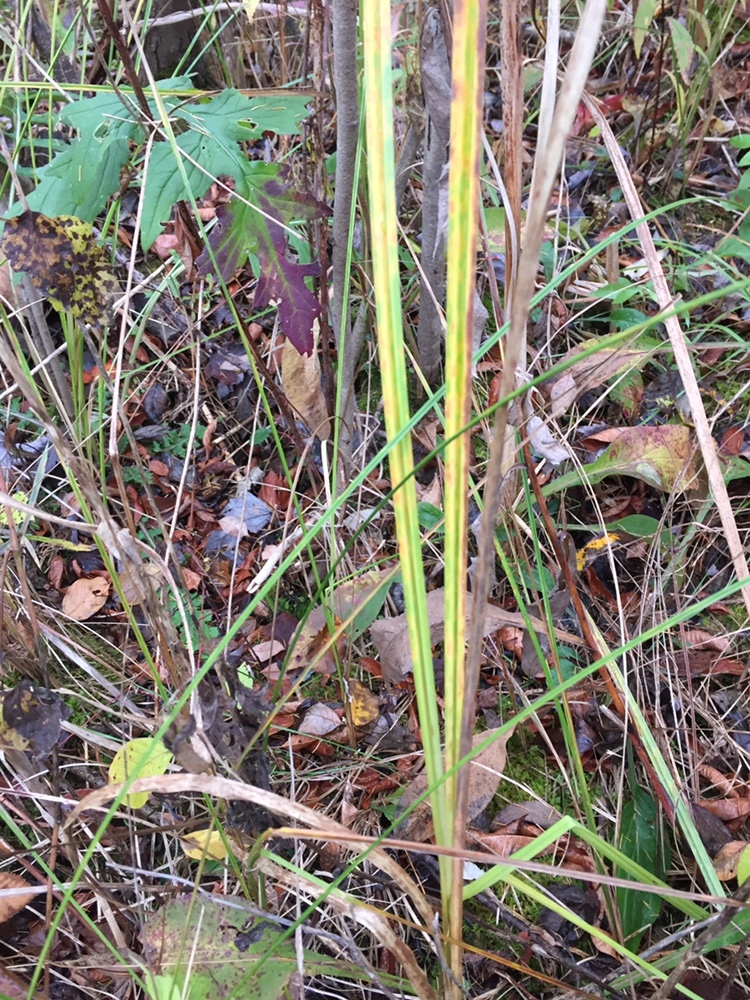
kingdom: Plantae
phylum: Tracheophyta
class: Liliopsida
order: Poales
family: Cyperaceae
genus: Carex
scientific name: Carex lacustris
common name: Common lake sedge
